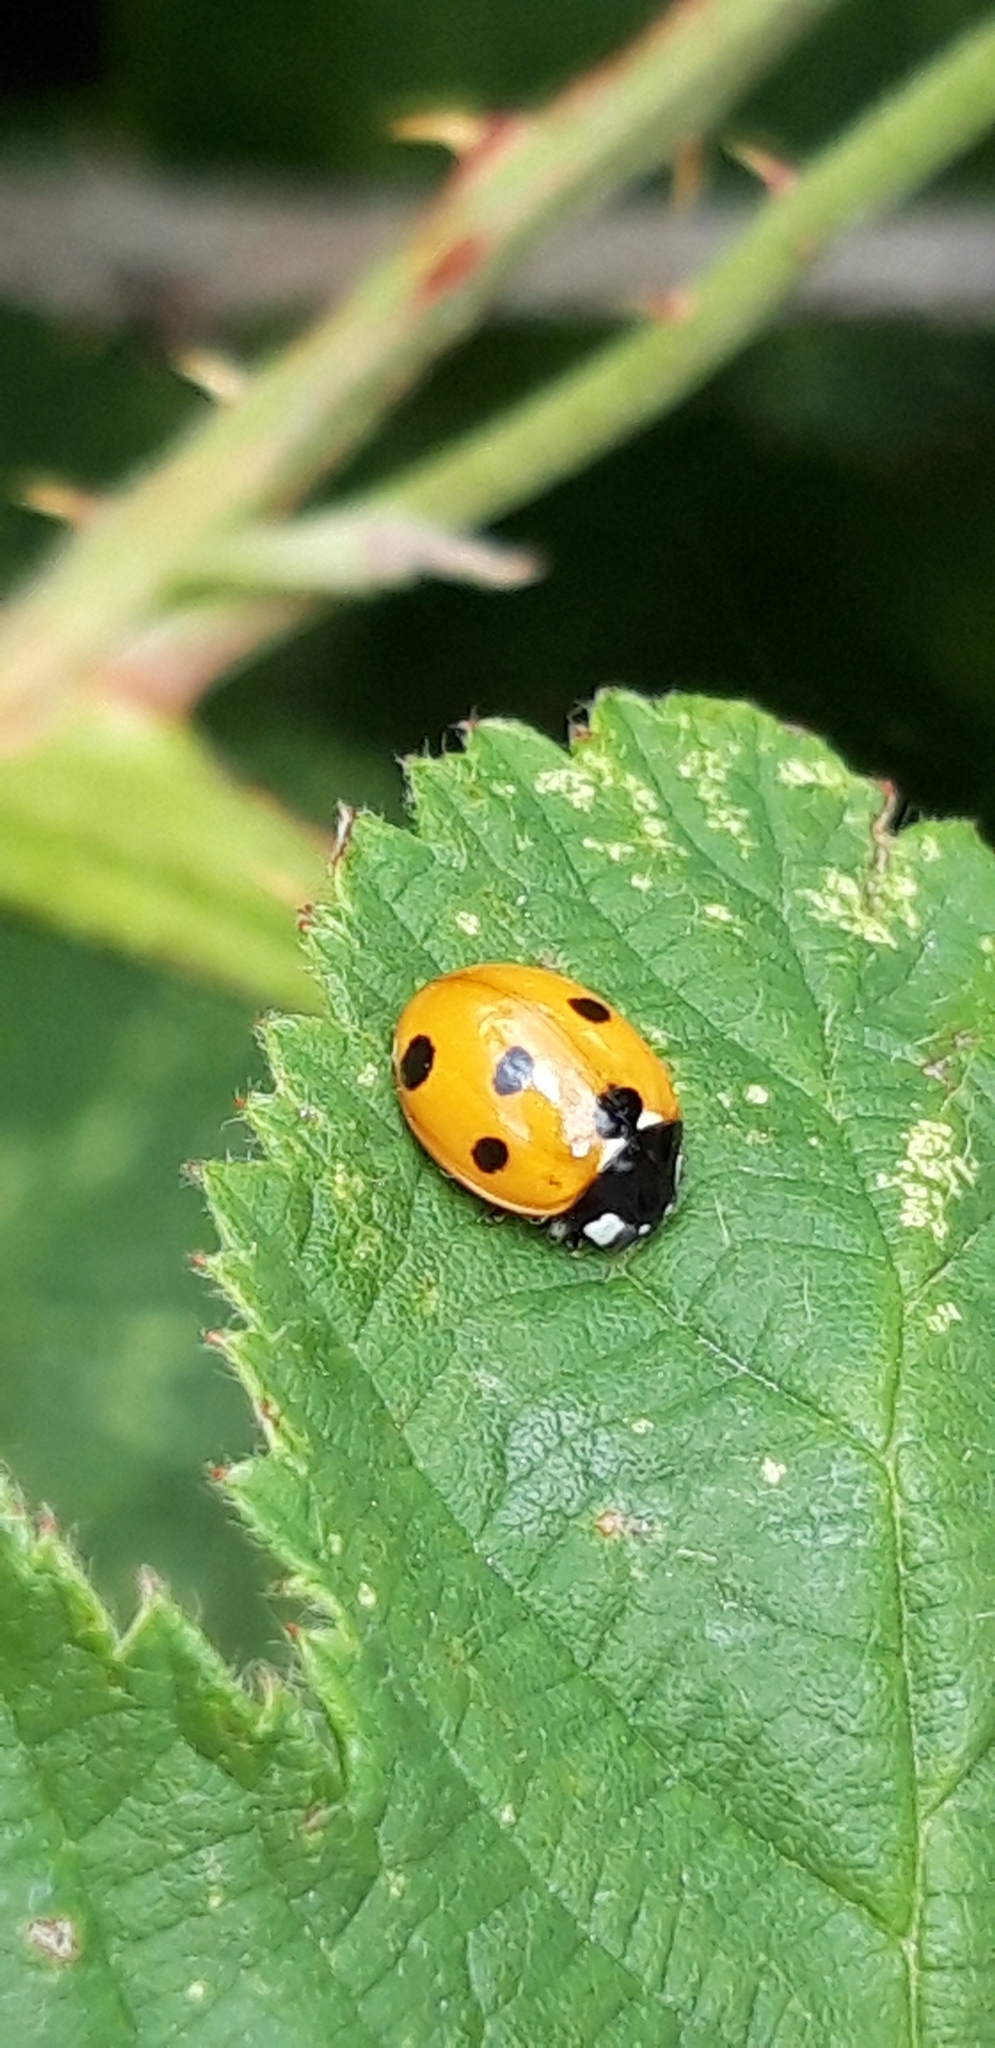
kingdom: Animalia
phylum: Arthropoda
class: Insecta
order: Coleoptera
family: Coccinellidae
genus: Coccinella
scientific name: Coccinella septempunctata
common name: Sevenspotted lady beetle
